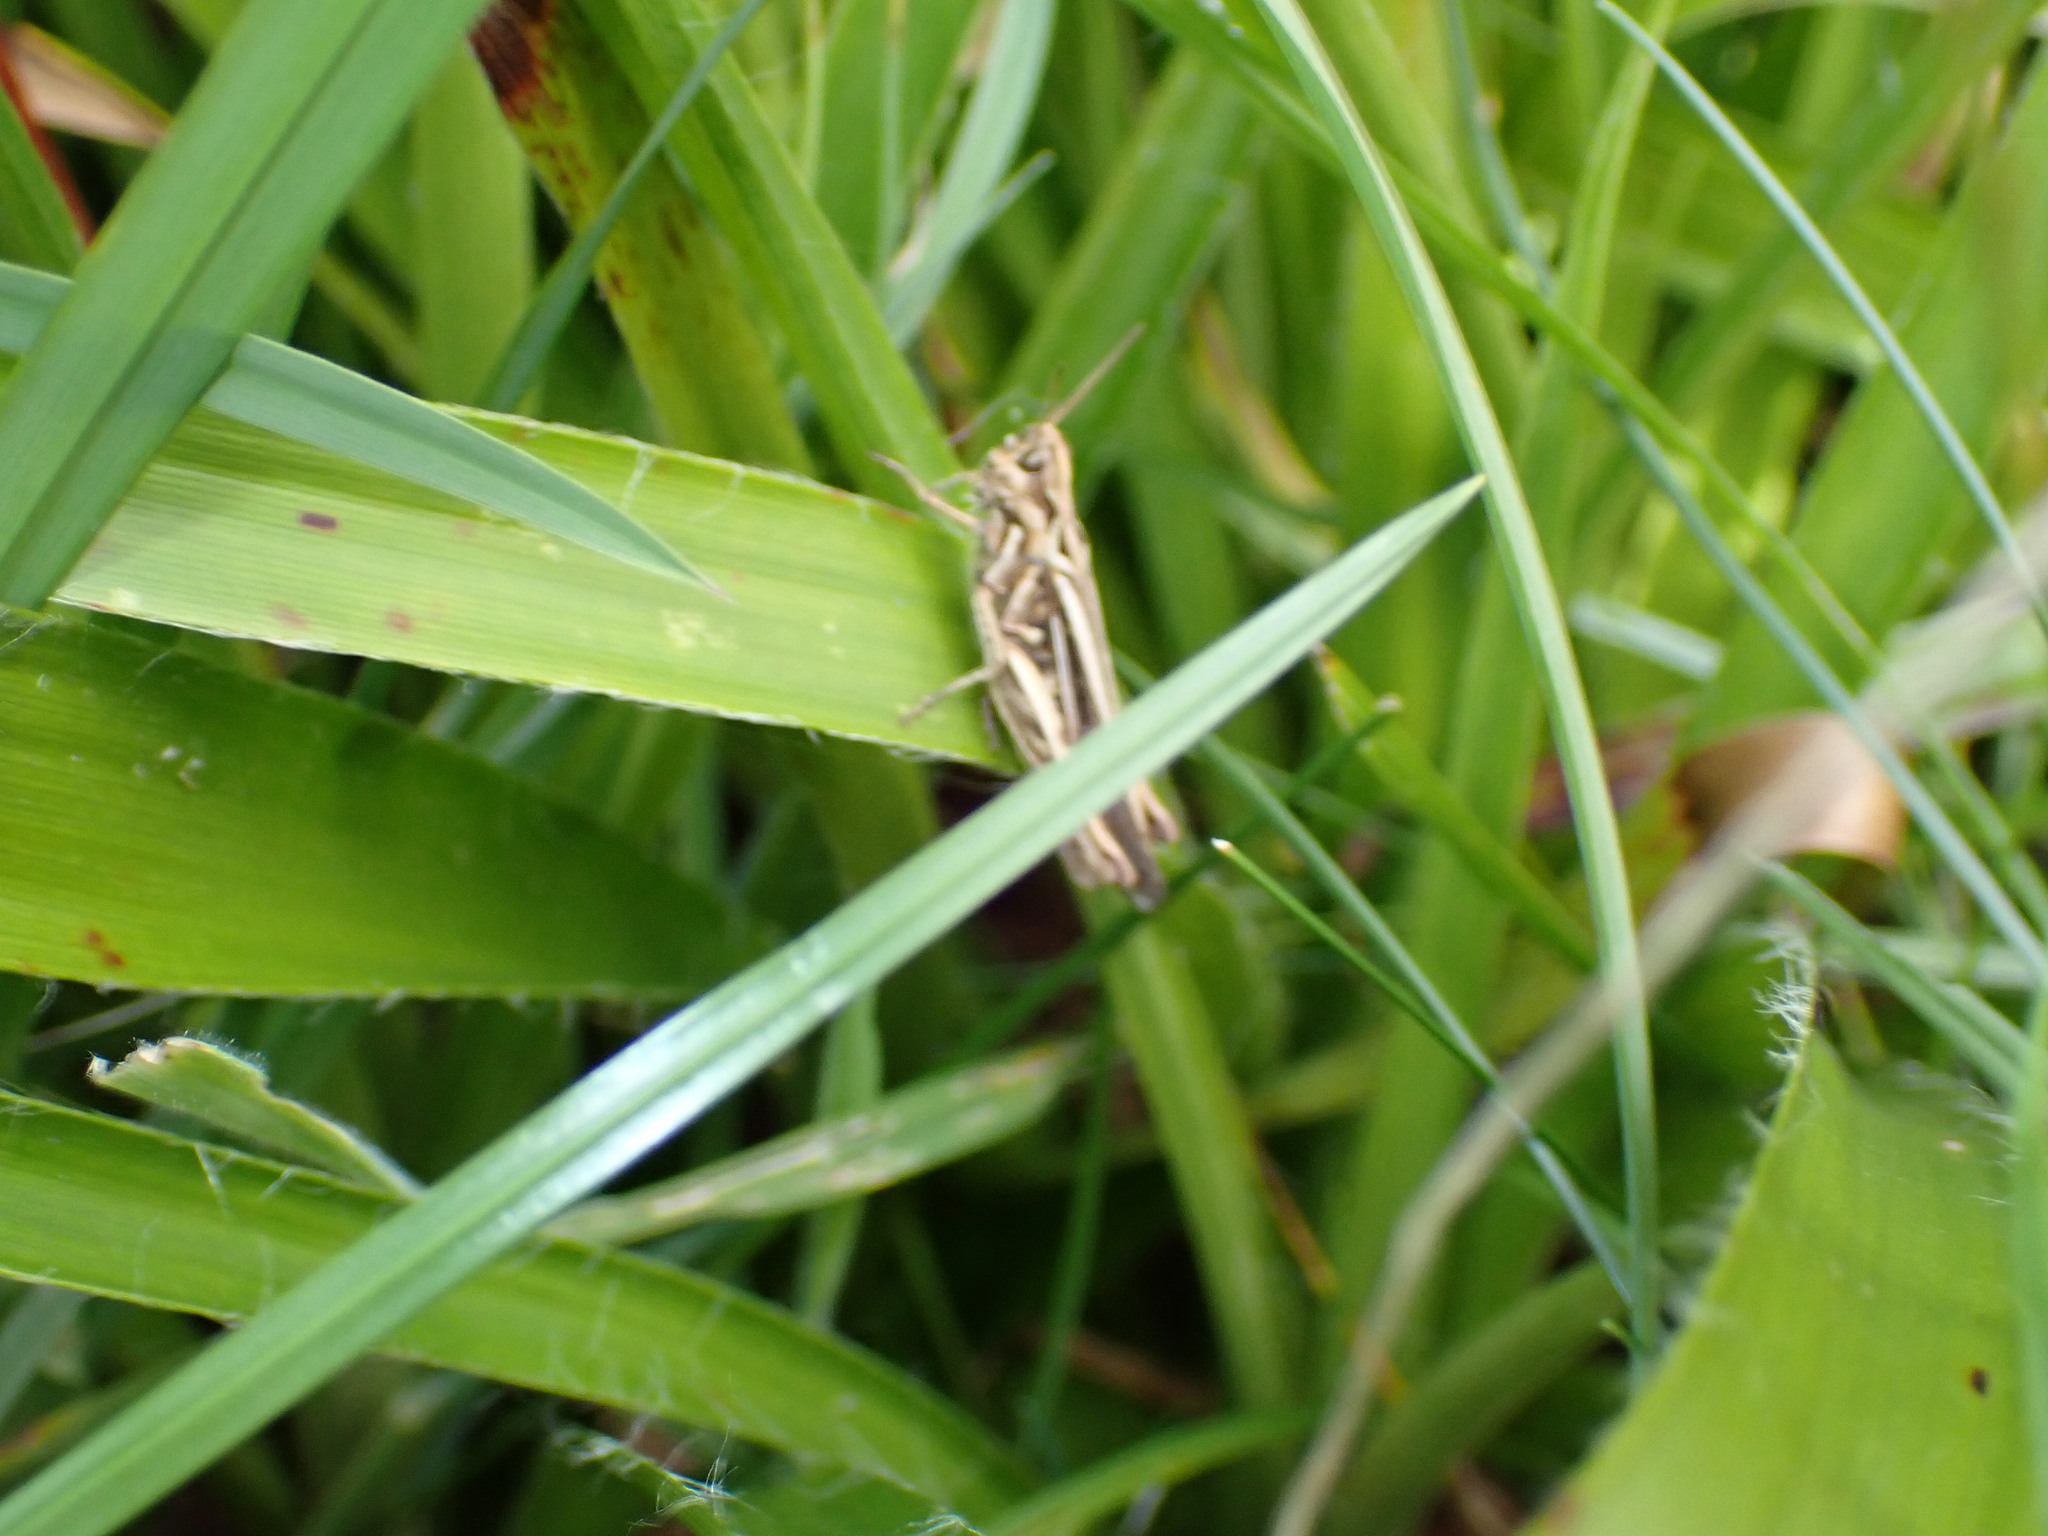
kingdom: Animalia
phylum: Arthropoda
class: Insecta
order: Orthoptera
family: Acrididae
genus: Chorthippus
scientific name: Chorthippus brunneus
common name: Field grasshopper
